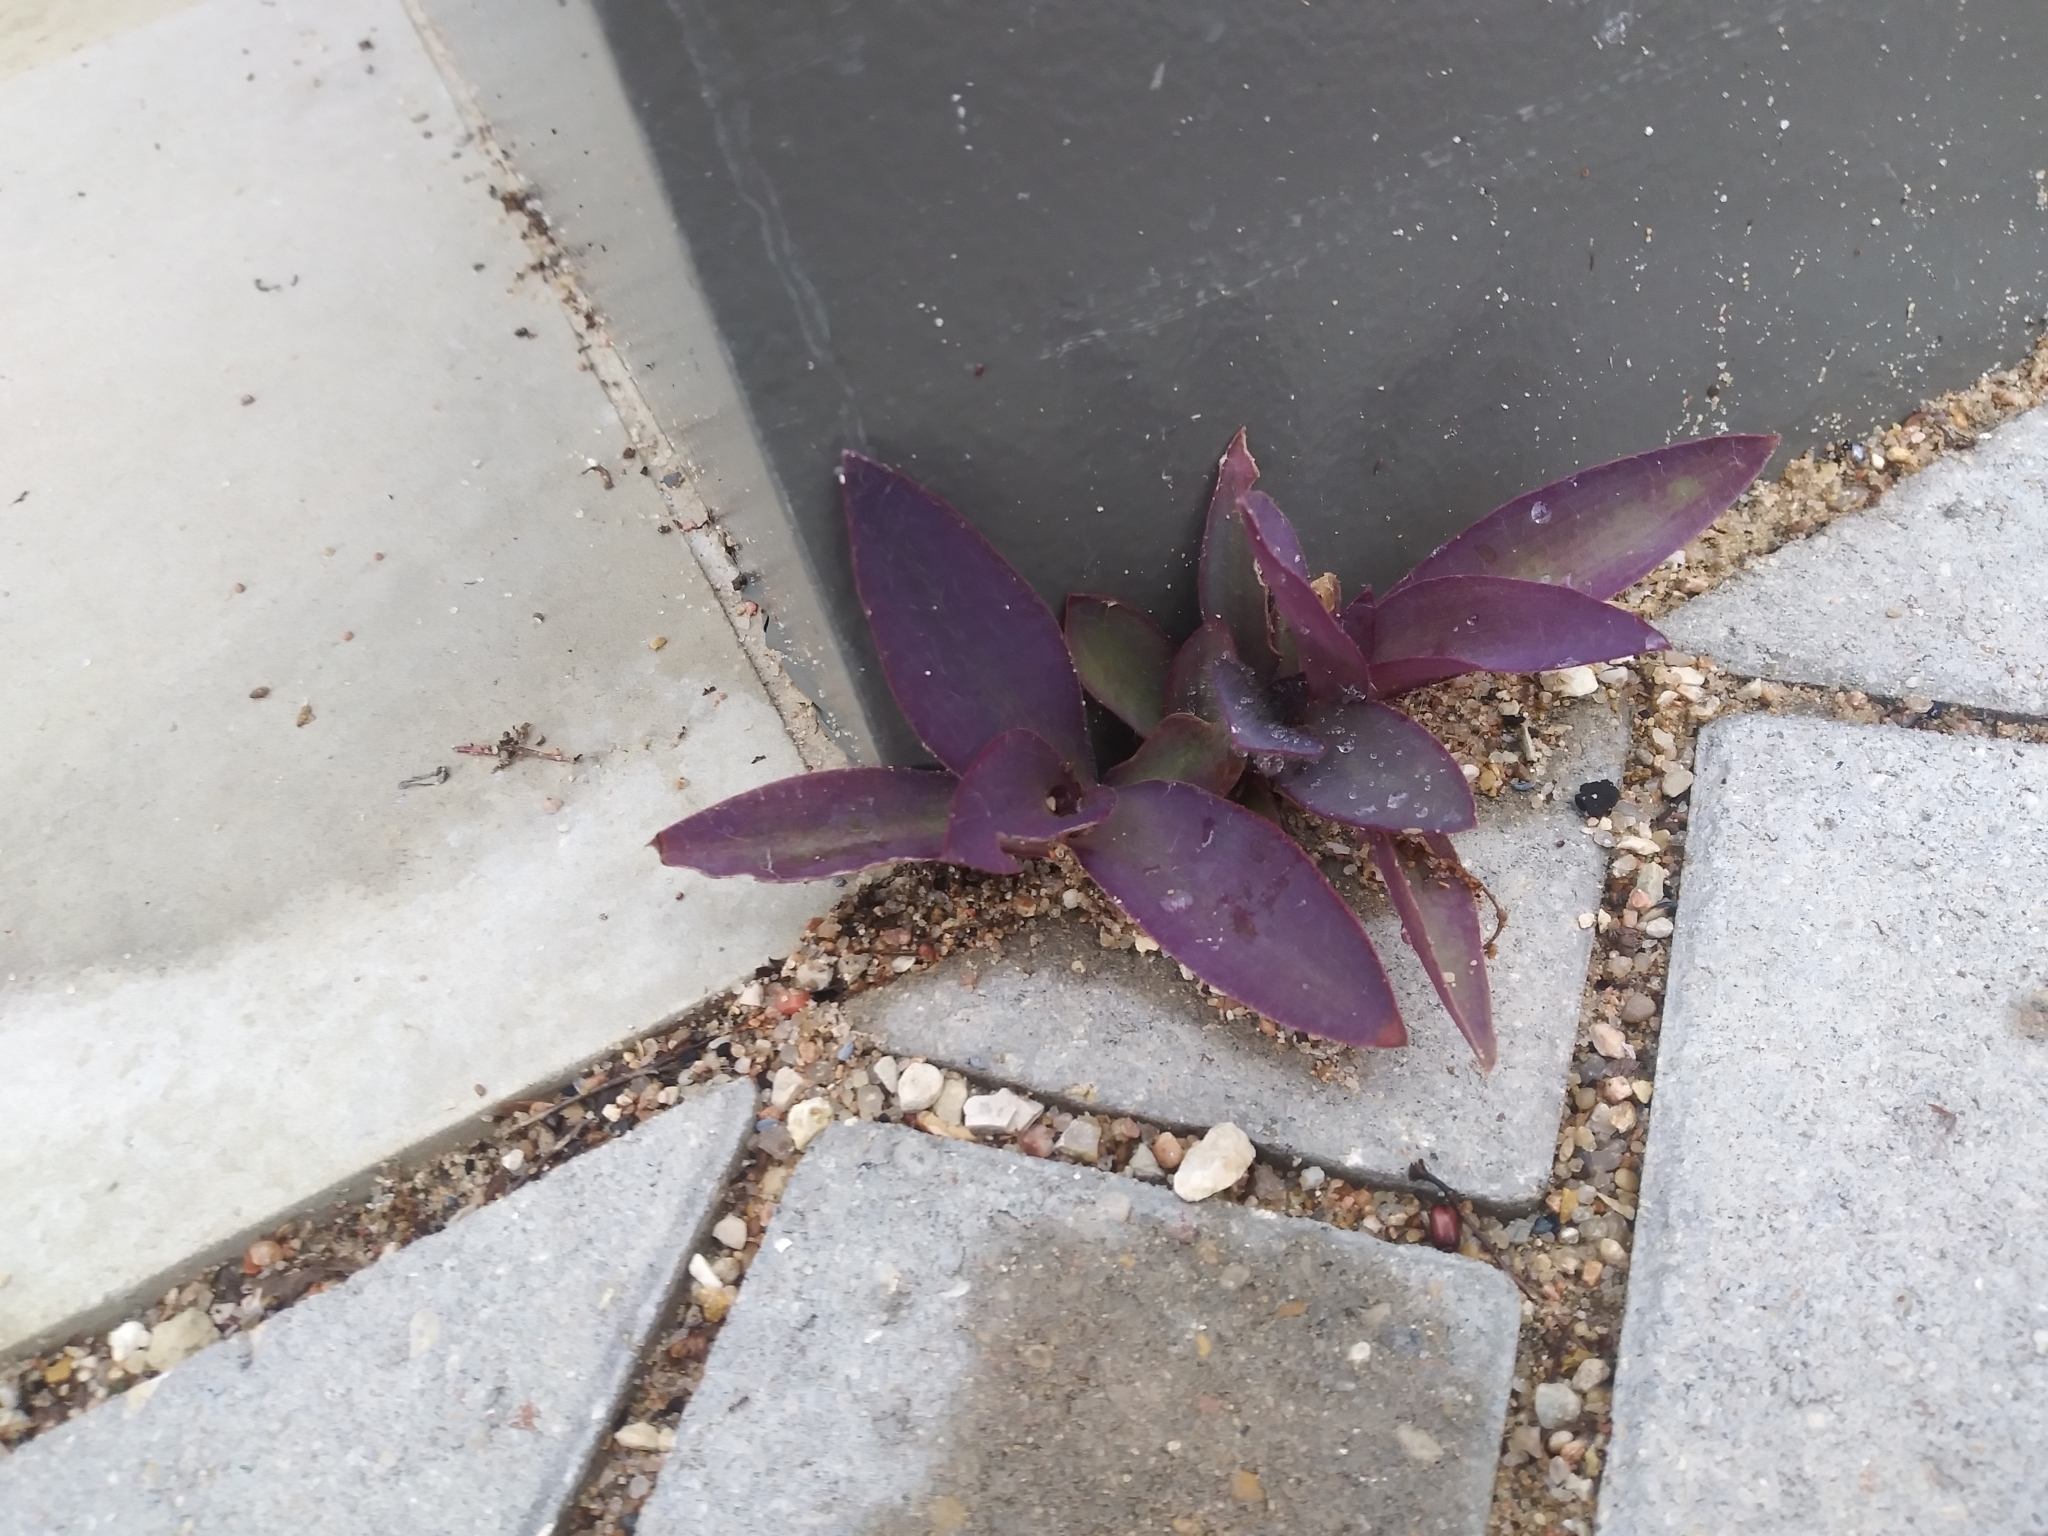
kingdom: Plantae
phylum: Tracheophyta
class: Liliopsida
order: Commelinales
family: Commelinaceae
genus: Tradescantia
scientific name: Tradescantia pallida
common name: Purpleheart
